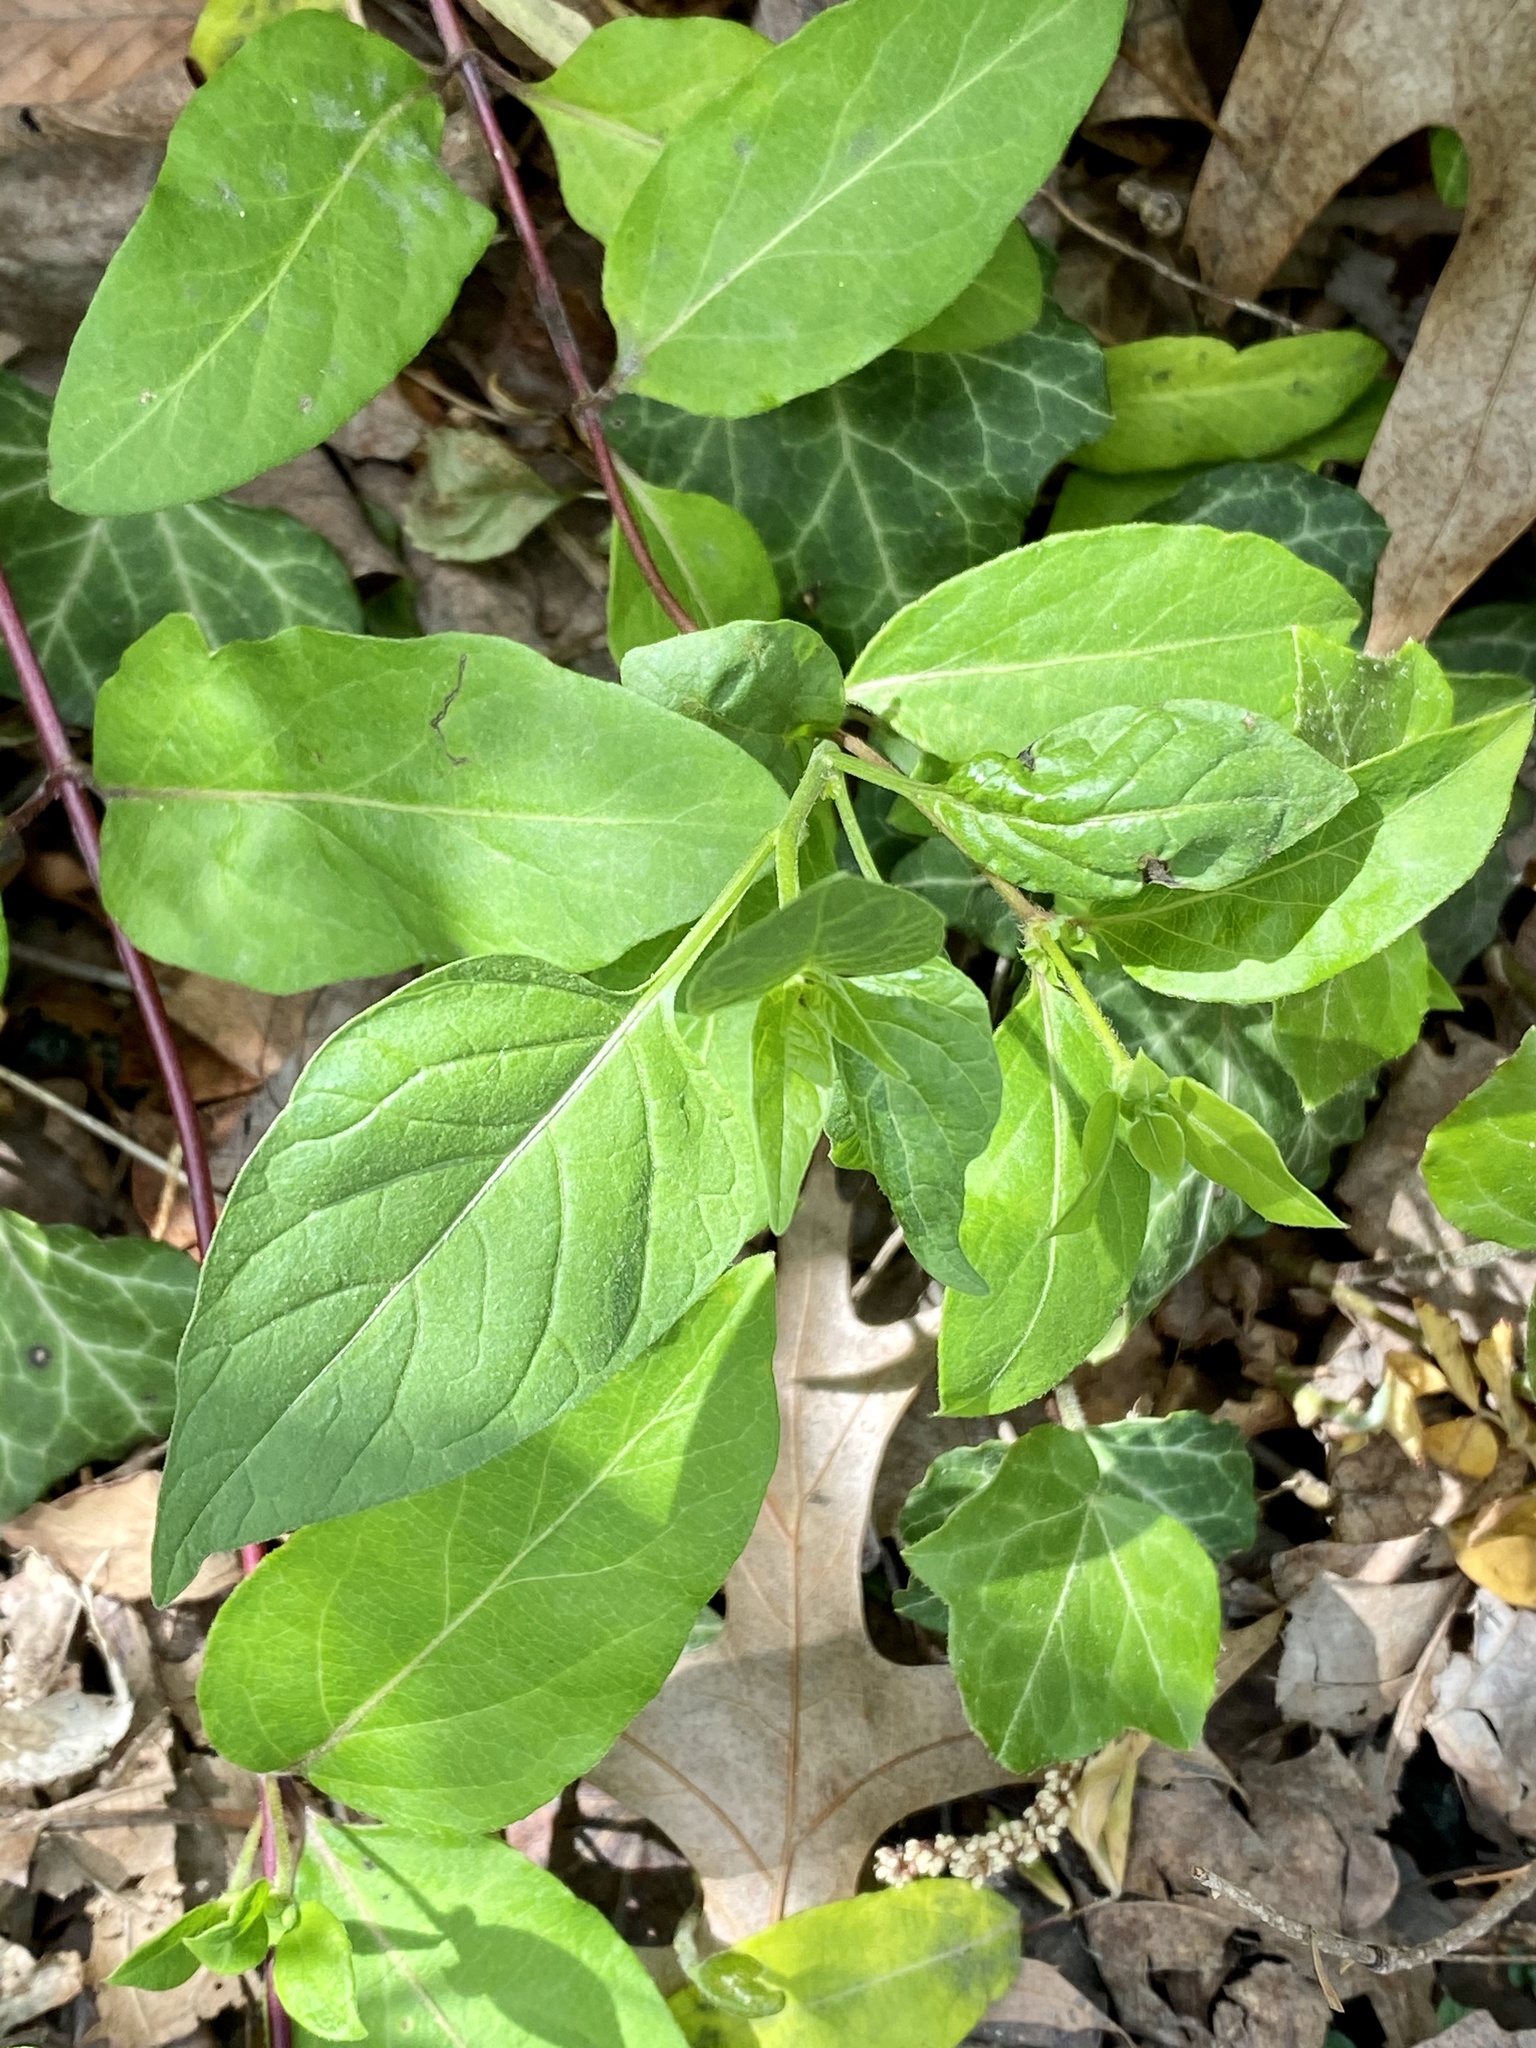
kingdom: Plantae
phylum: Tracheophyta
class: Magnoliopsida
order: Dipsacales
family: Caprifoliaceae
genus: Lonicera
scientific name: Lonicera japonica
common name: Japanese honeysuckle
